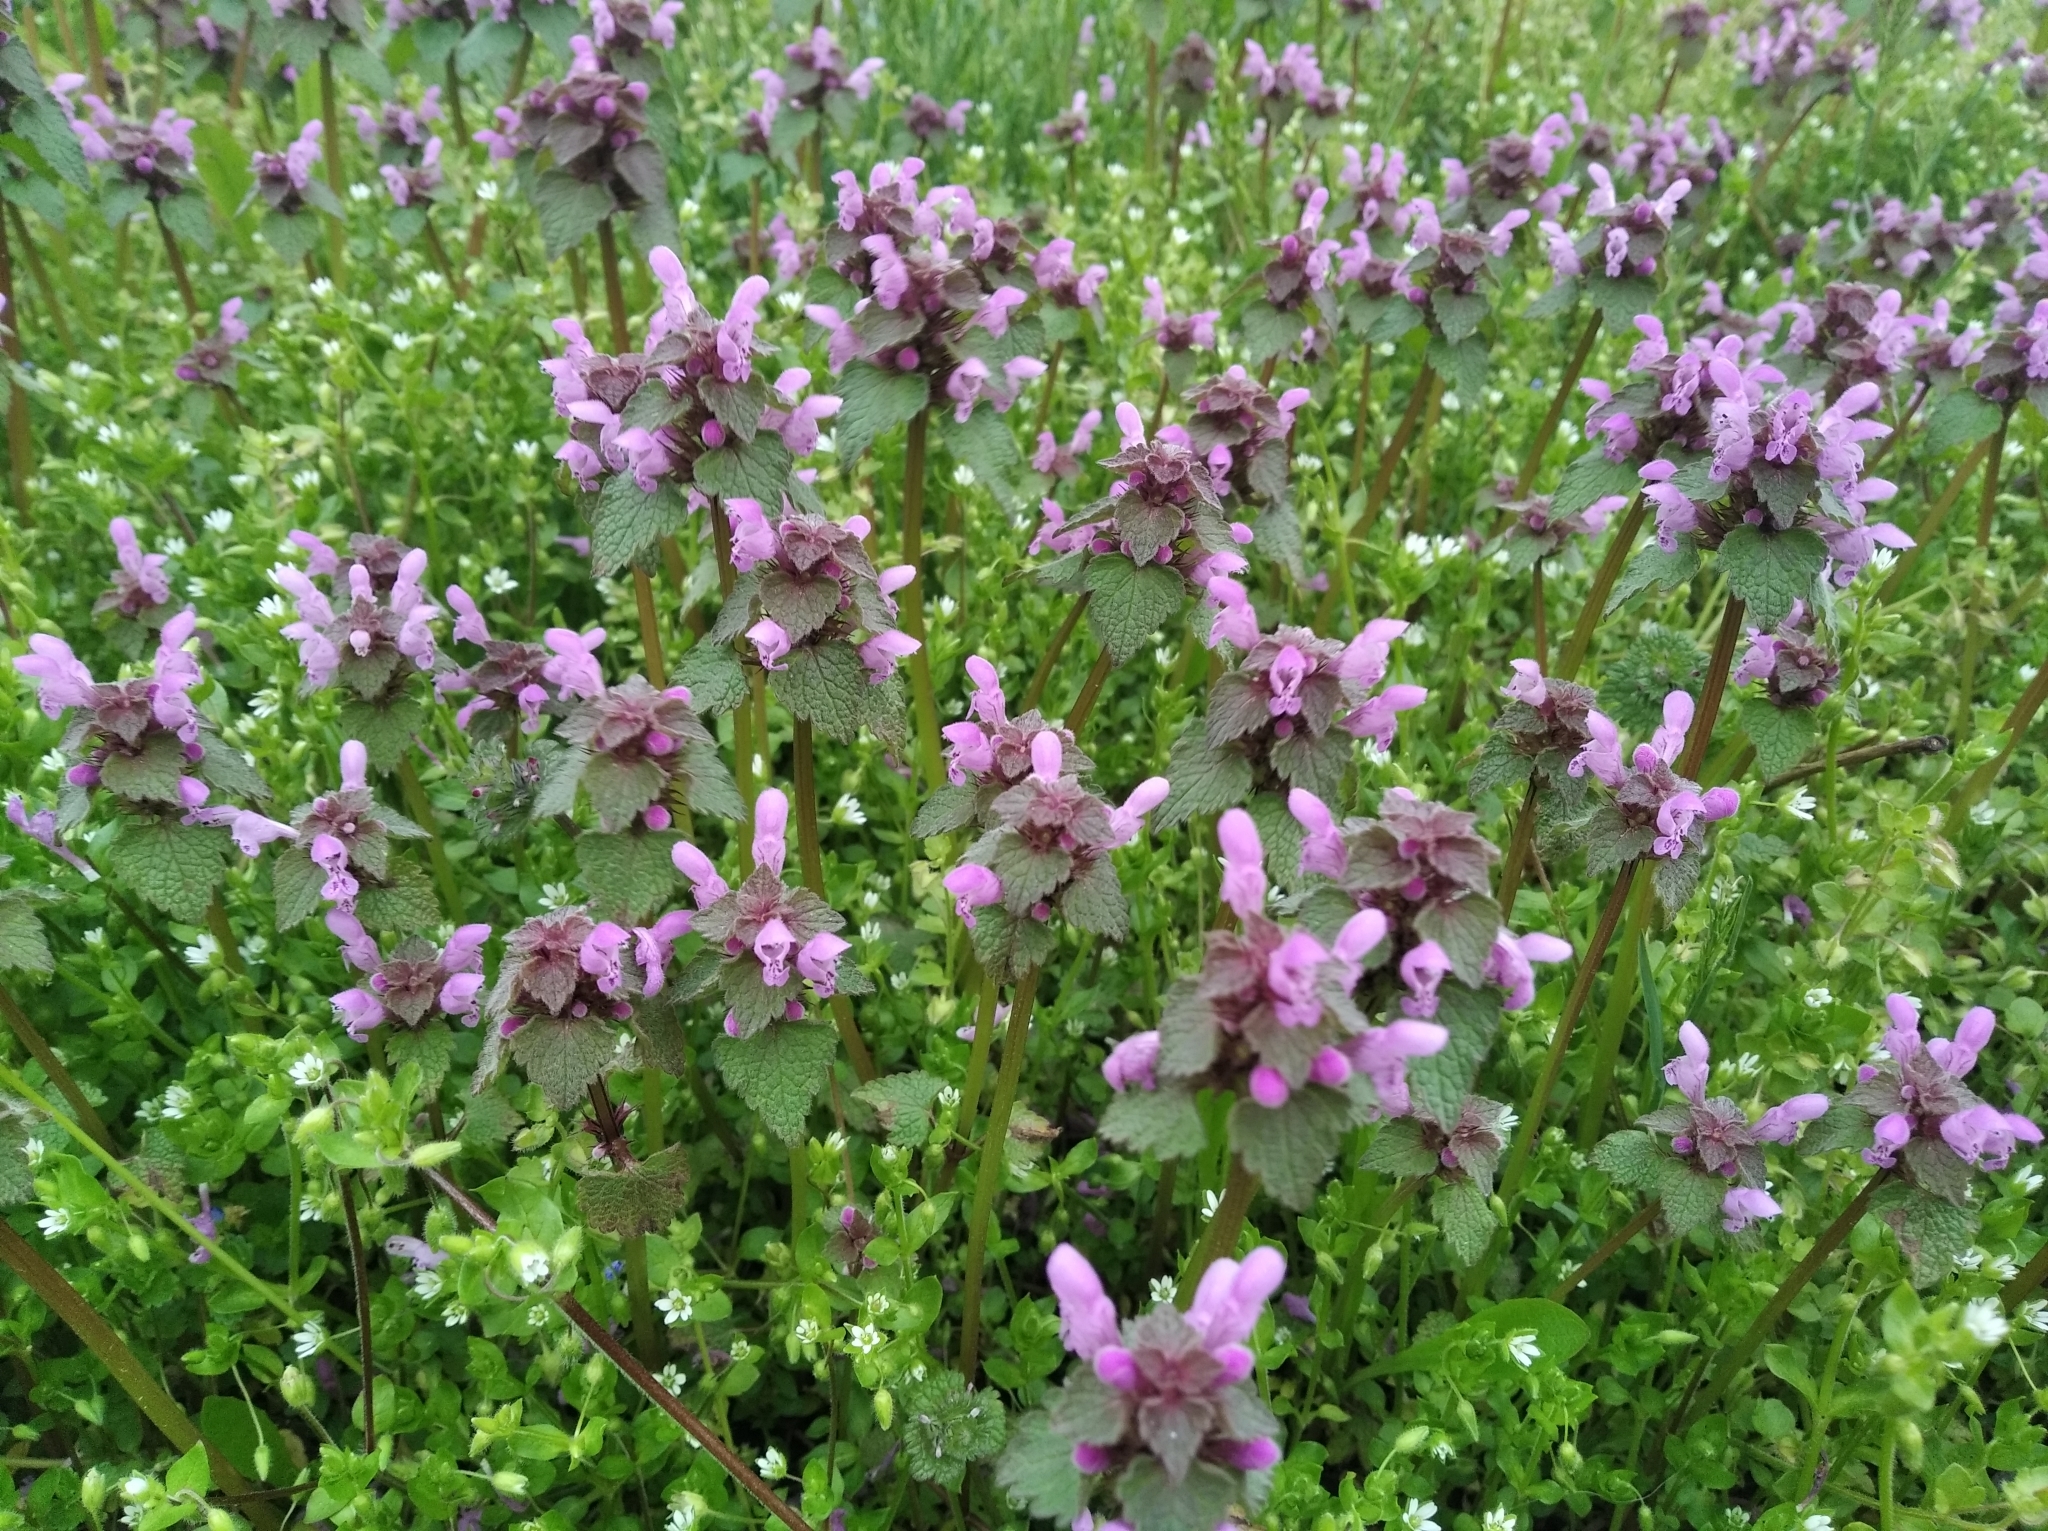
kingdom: Plantae
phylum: Tracheophyta
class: Magnoliopsida
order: Lamiales
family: Lamiaceae
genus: Lamium
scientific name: Lamium purpureum
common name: Red dead-nettle
